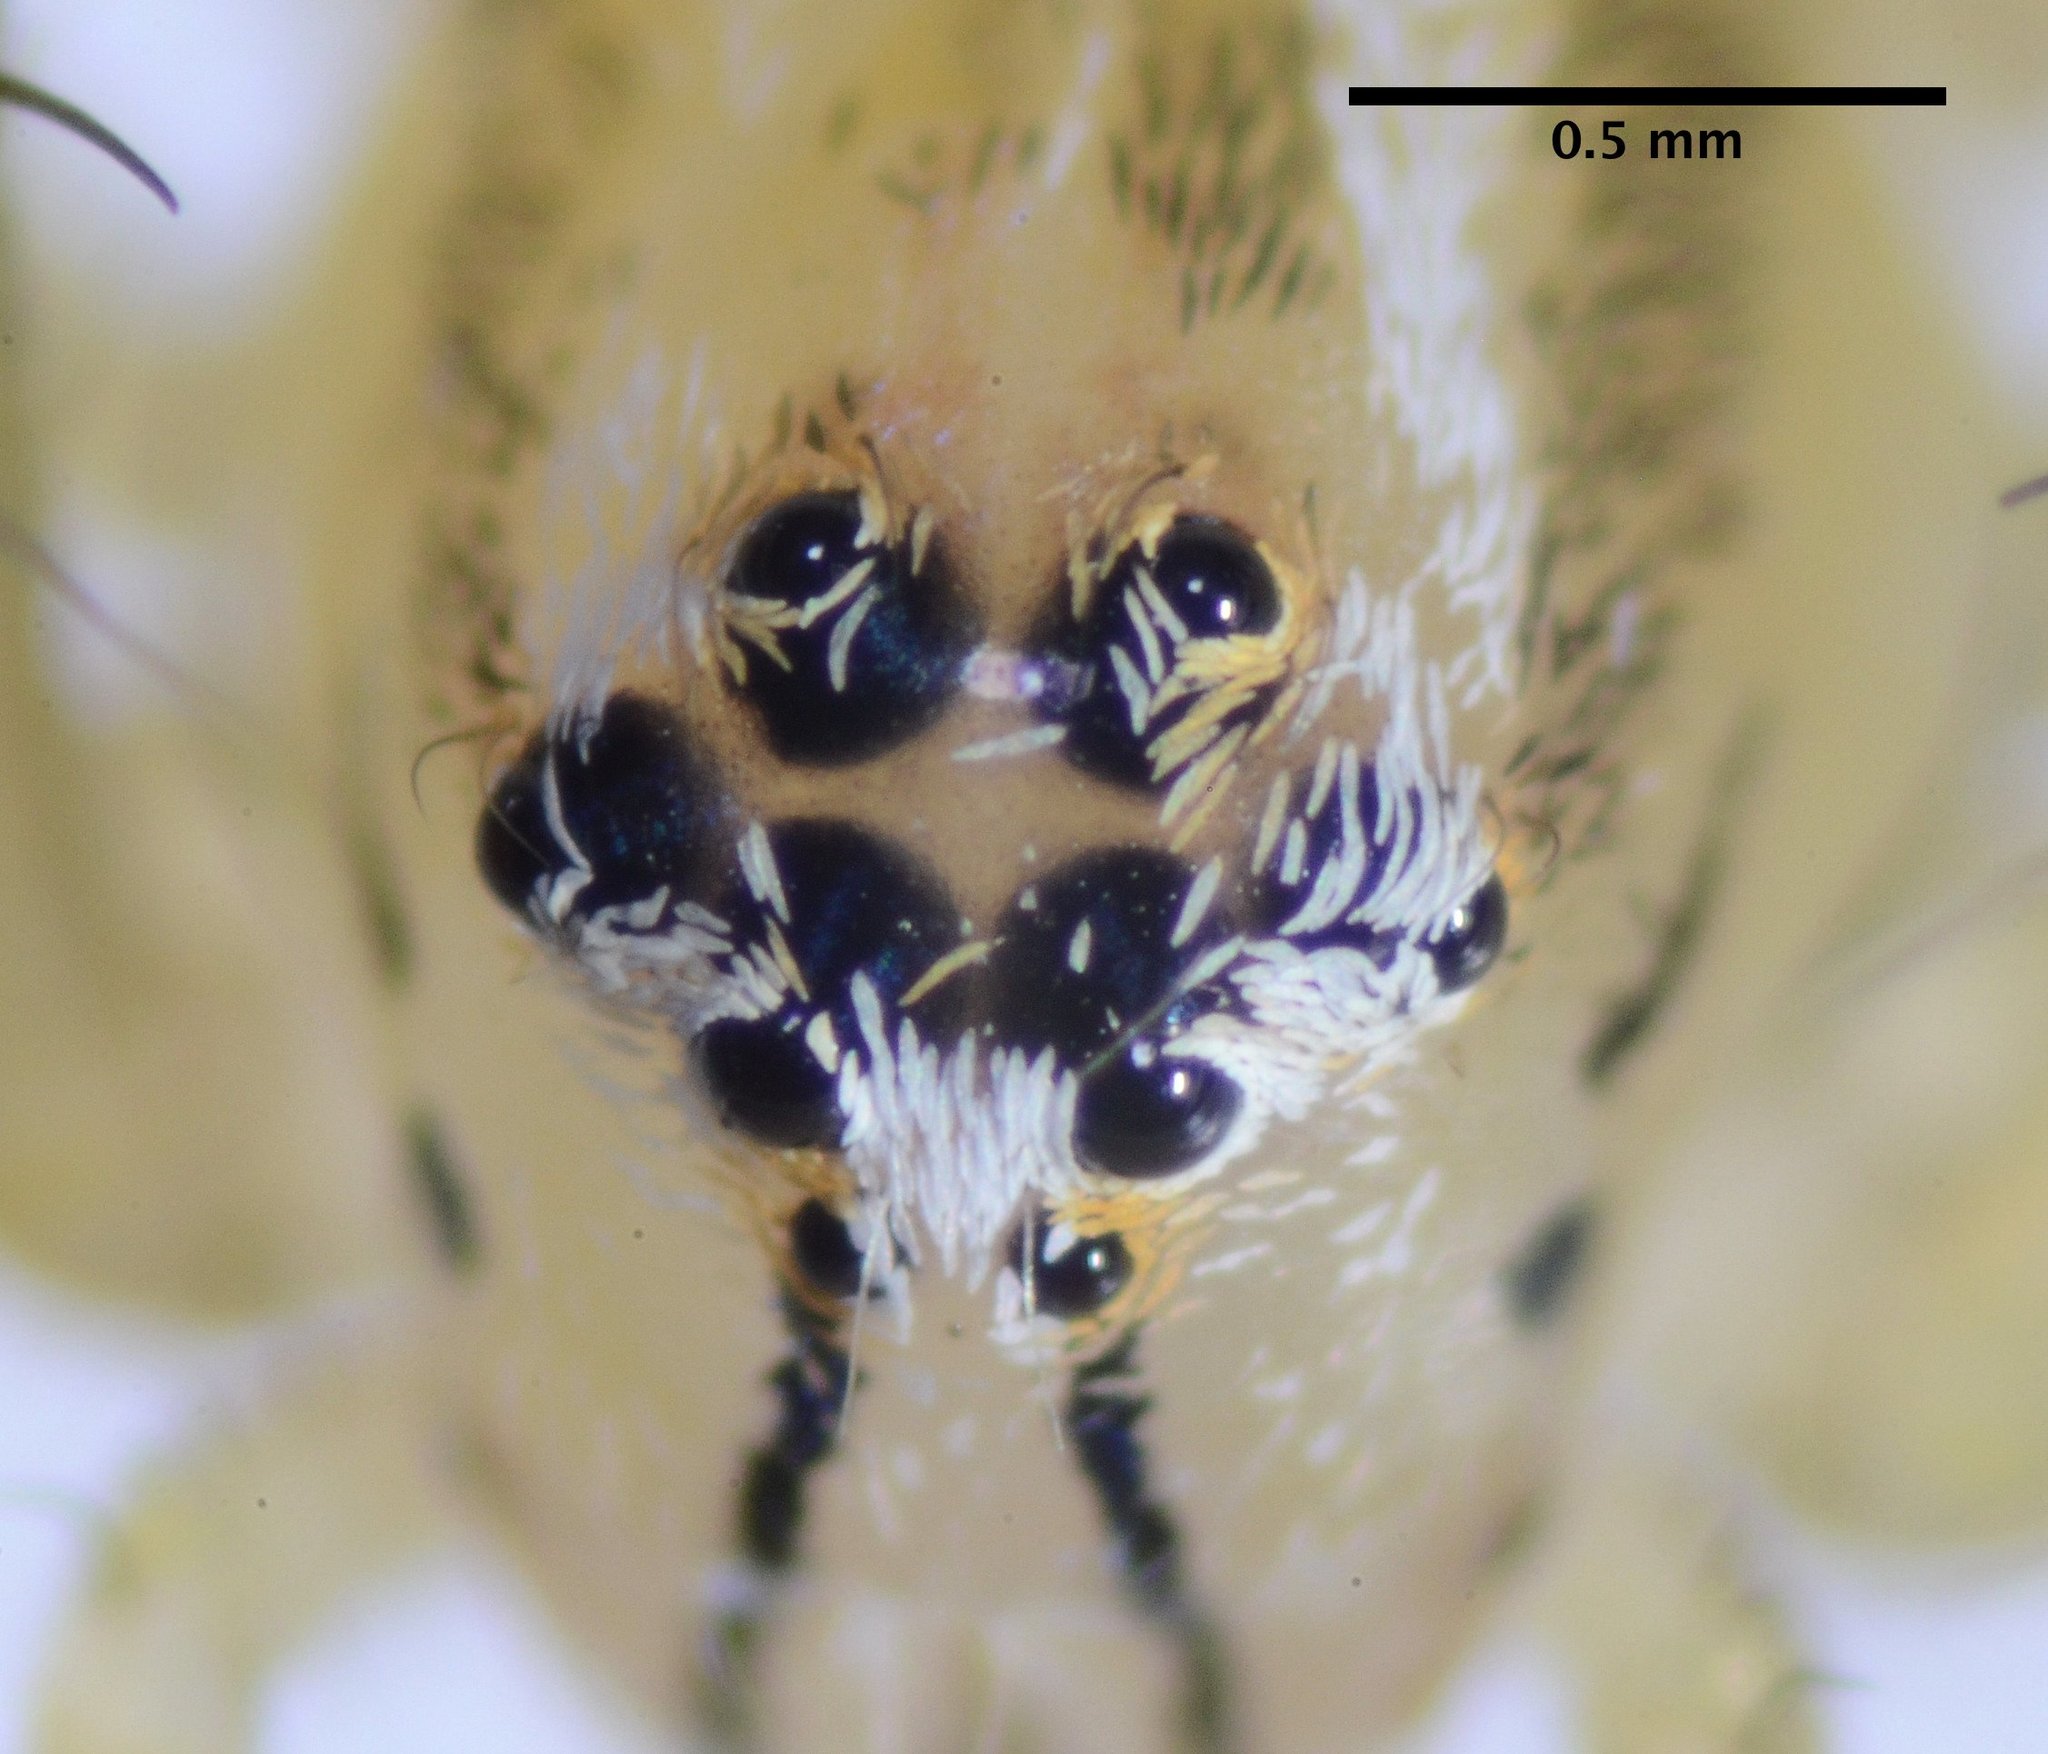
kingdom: Animalia
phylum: Arthropoda
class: Arachnida
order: Araneae
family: Oxyopidae
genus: Oxyopes
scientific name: Oxyopes salticus
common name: Lynx spiders
